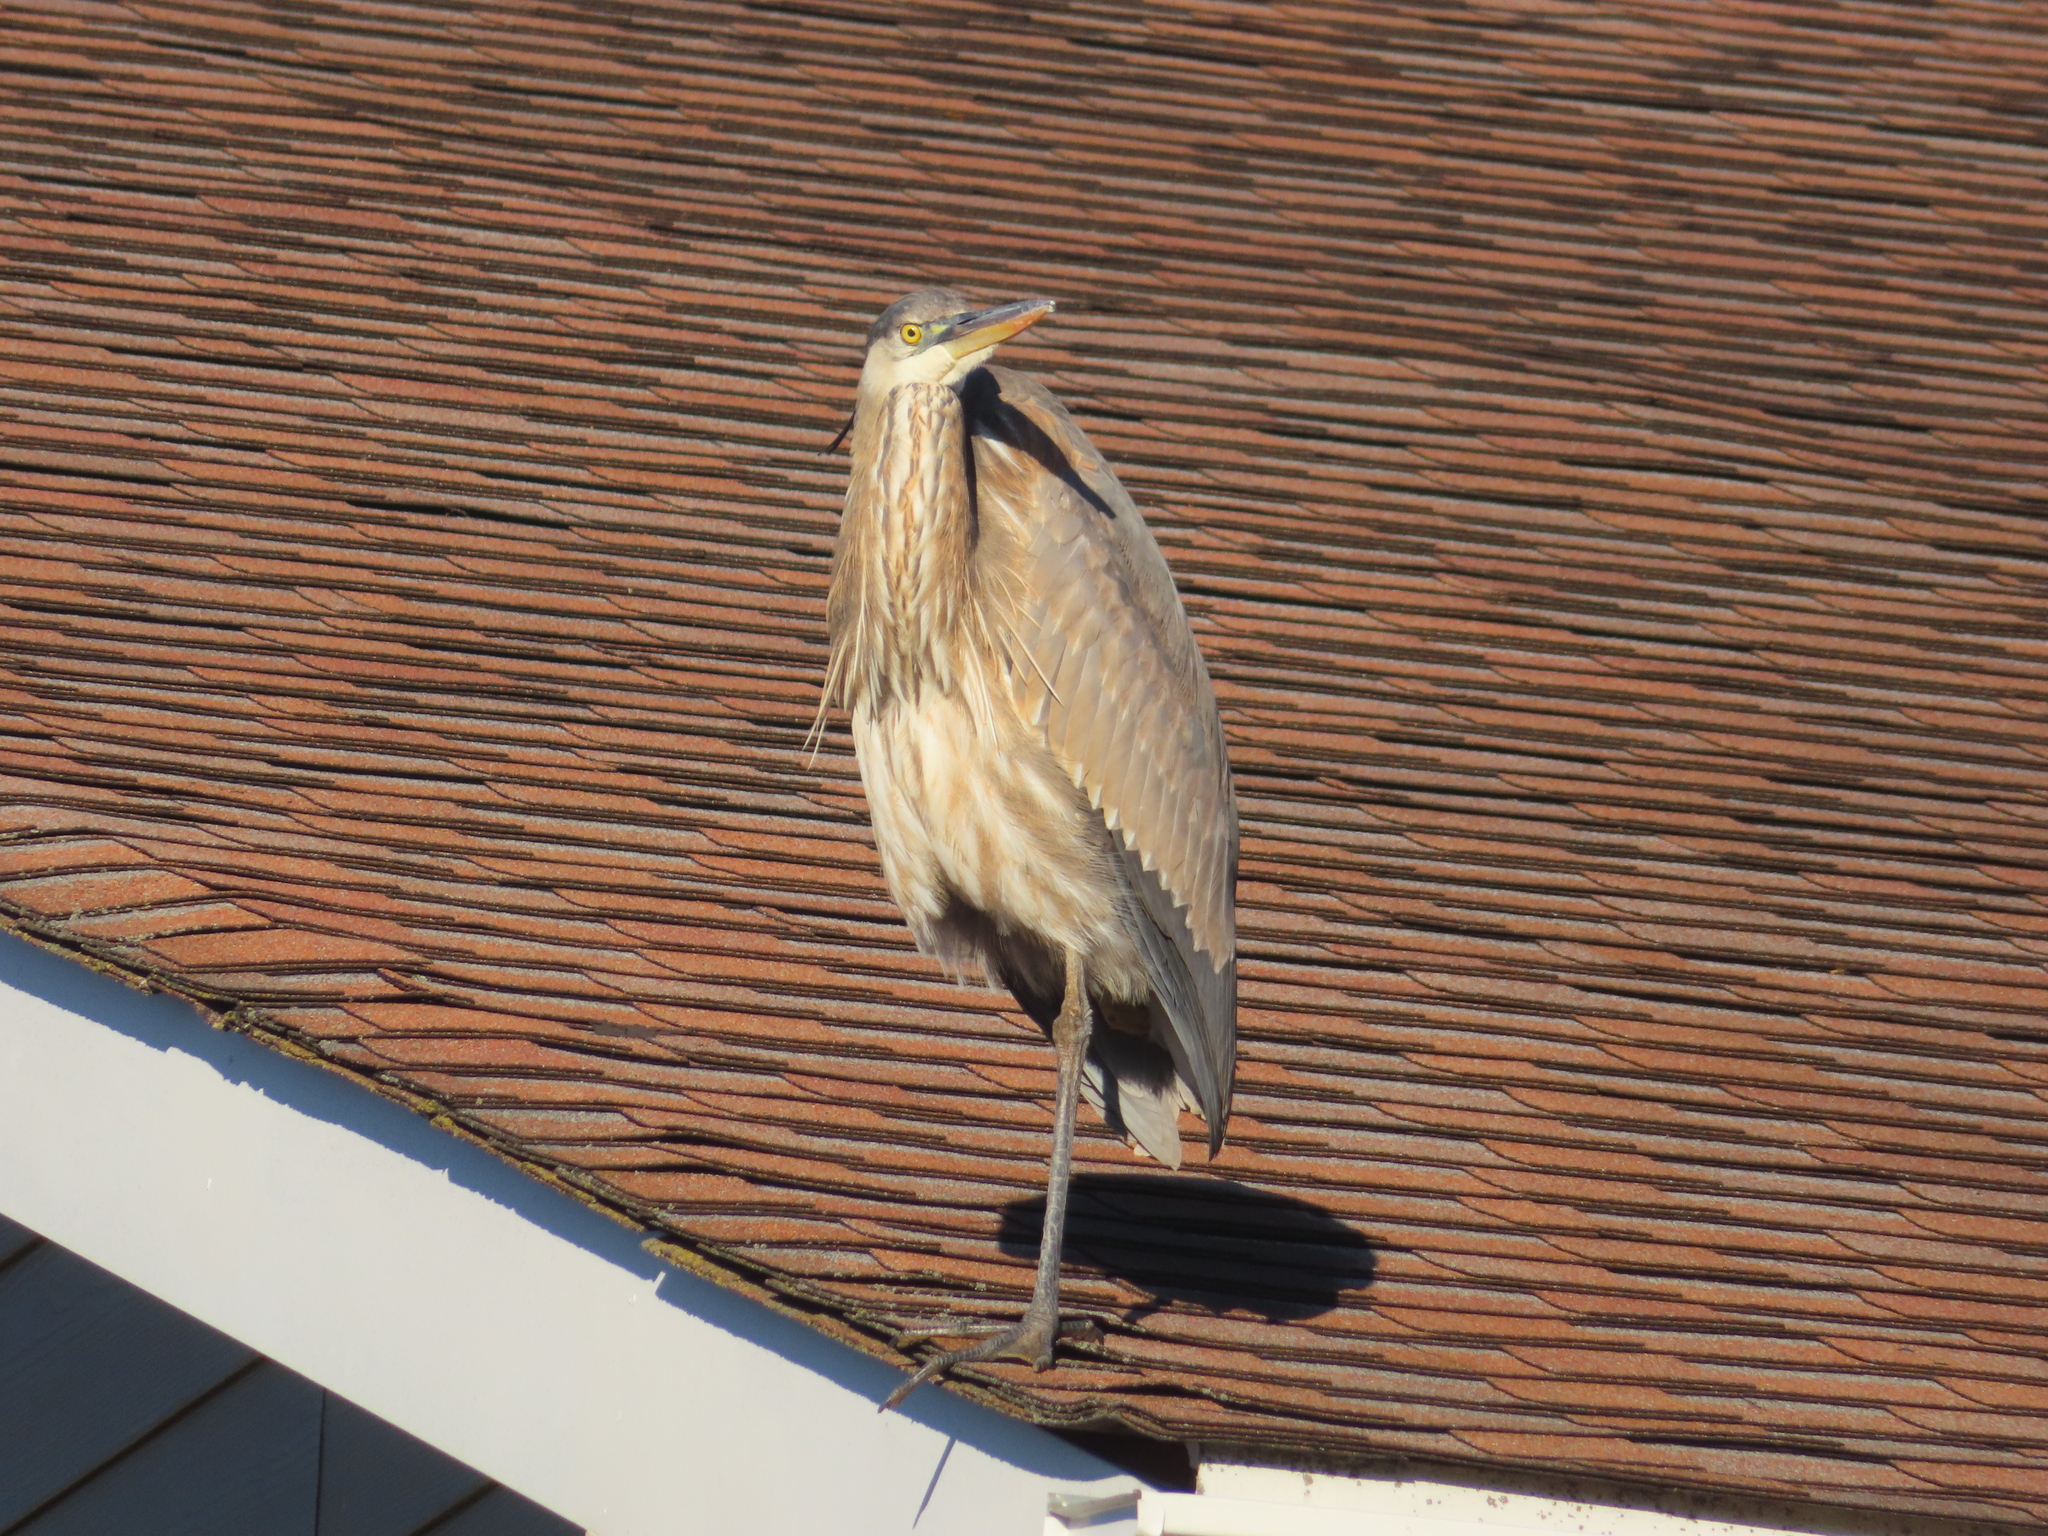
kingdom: Animalia
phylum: Chordata
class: Aves
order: Pelecaniformes
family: Ardeidae
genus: Ardea
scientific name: Ardea herodias
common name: Great blue heron
